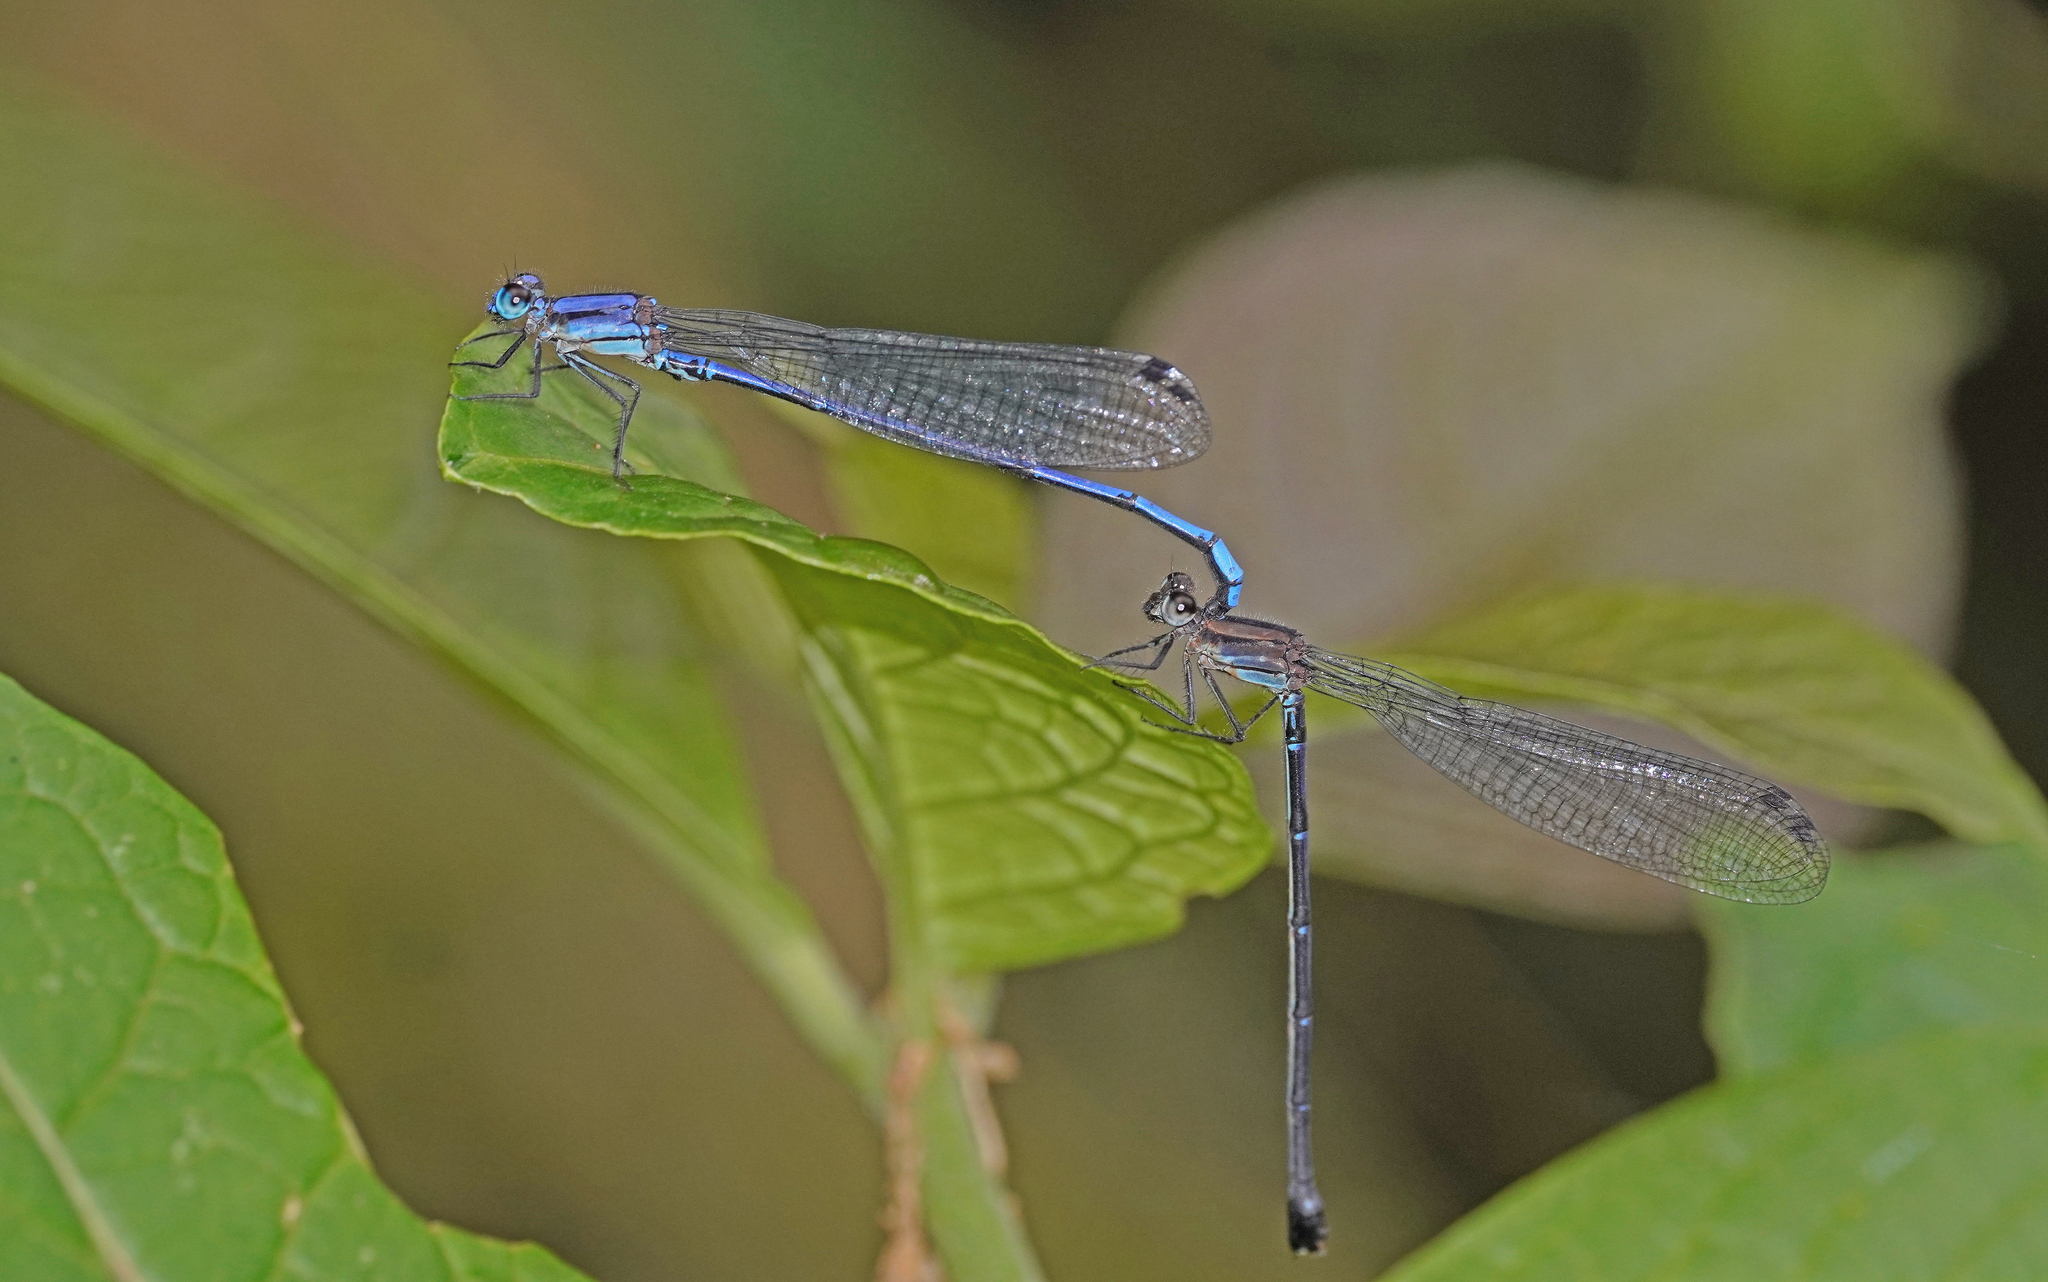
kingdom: Animalia
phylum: Arthropoda
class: Insecta
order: Odonata
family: Coenagrionidae
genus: Argia
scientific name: Argia medullaris
